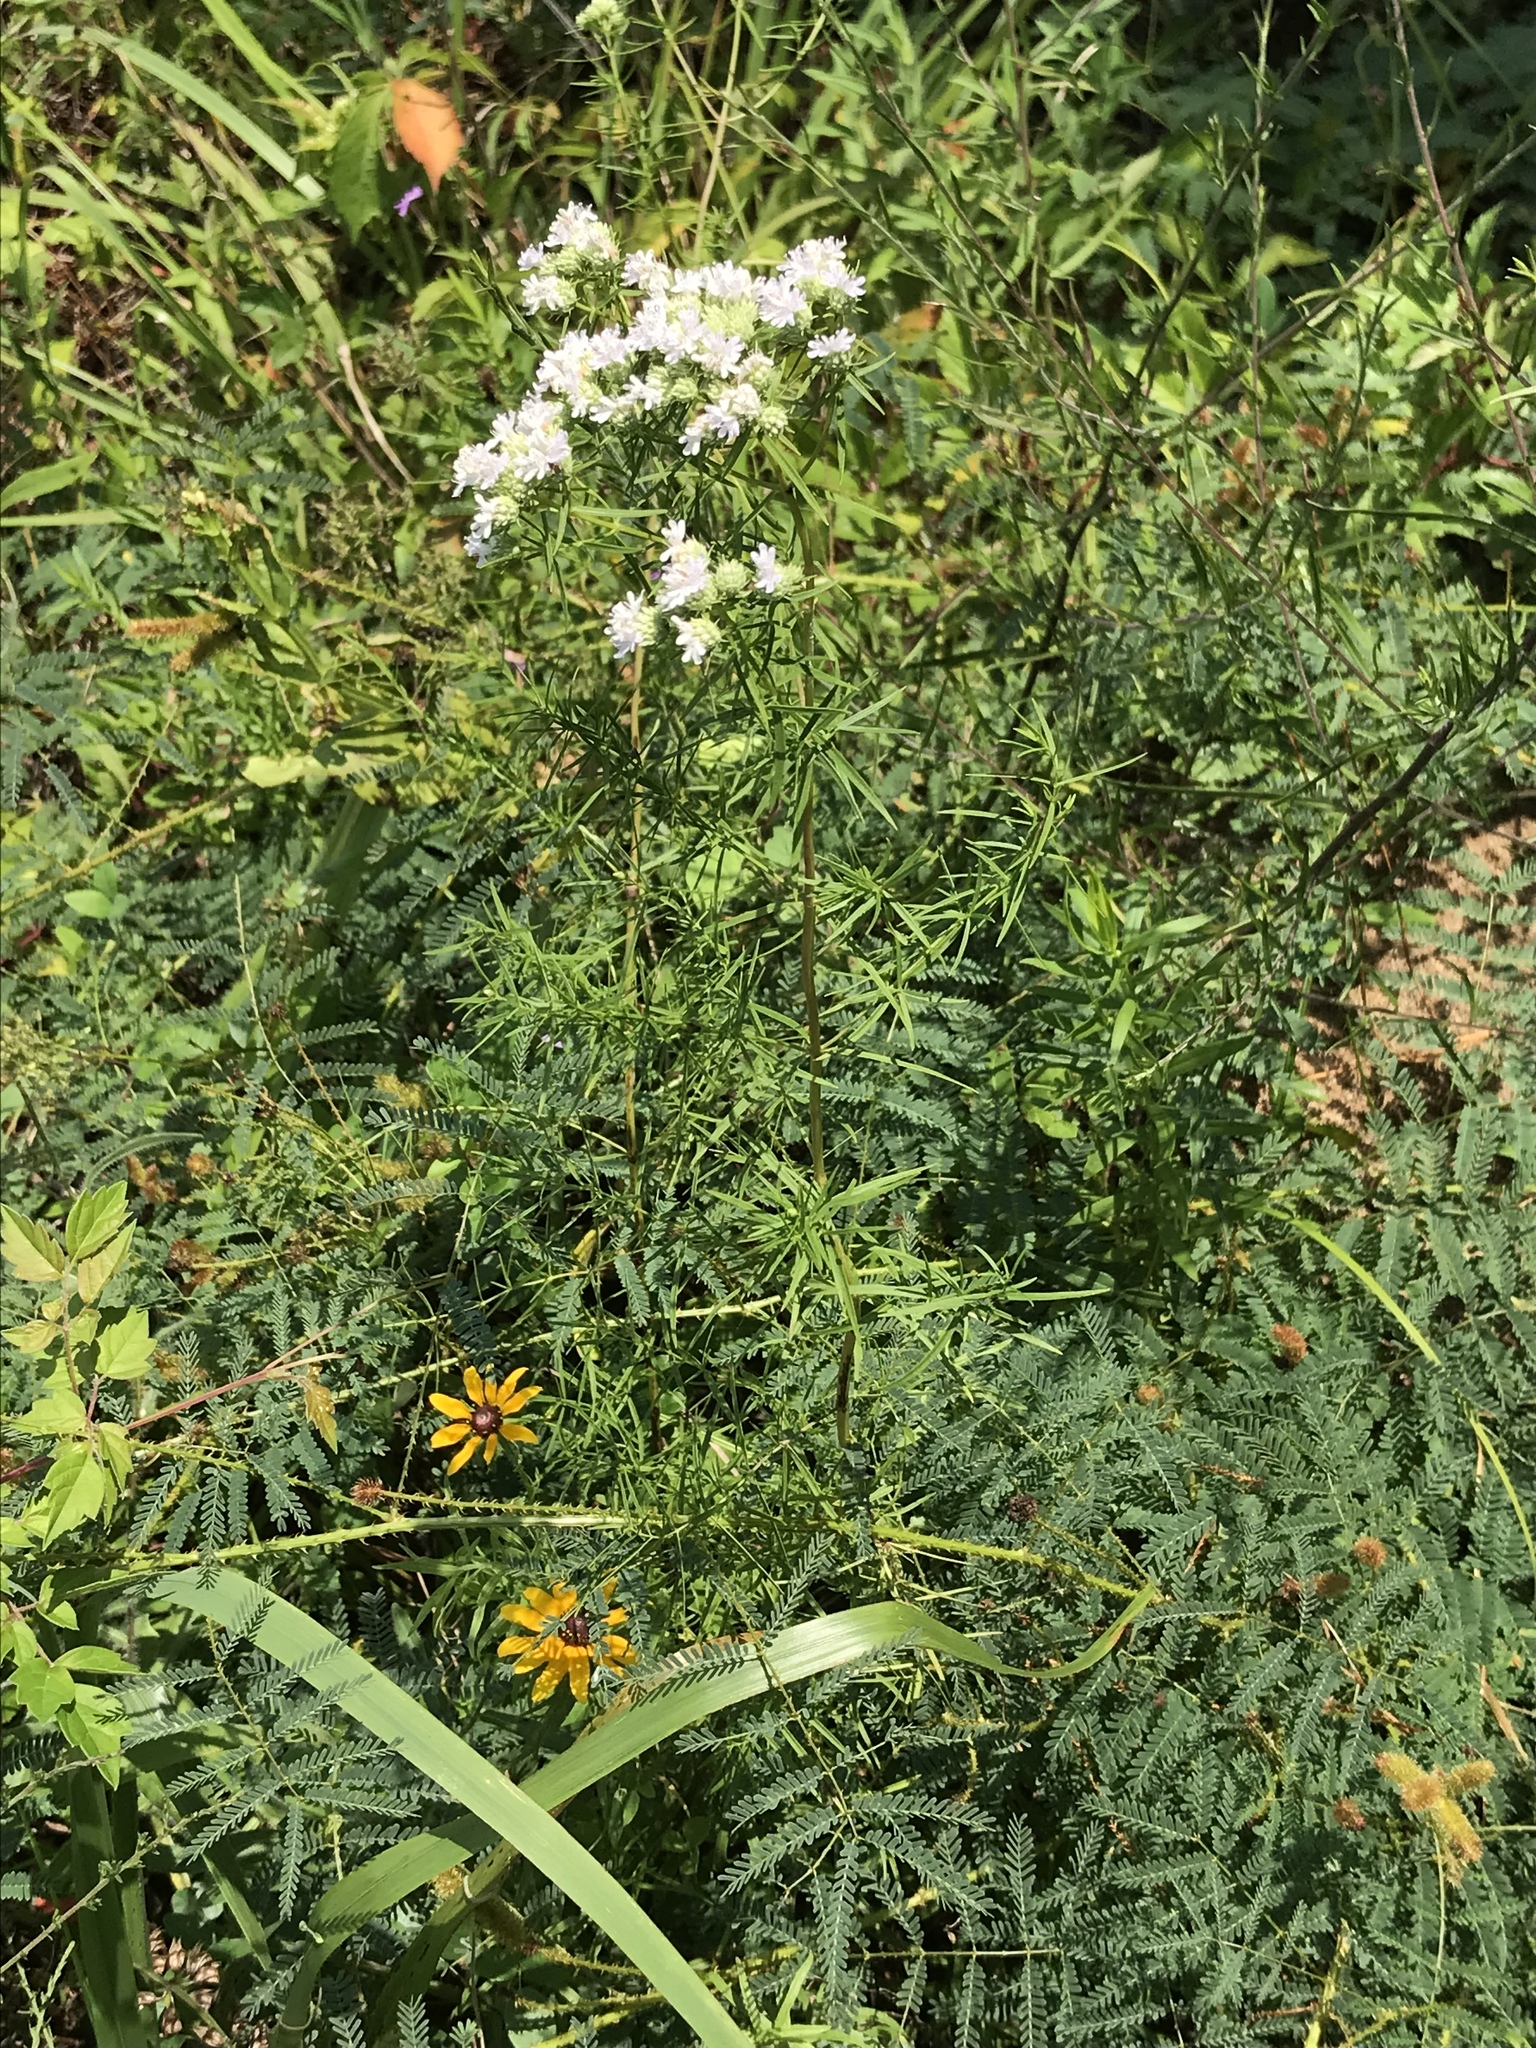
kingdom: Plantae
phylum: Tracheophyta
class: Magnoliopsida
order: Lamiales
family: Lamiaceae
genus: Pycnanthemum
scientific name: Pycnanthemum tenuifolium
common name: Narrow-leaf mountain-mint
